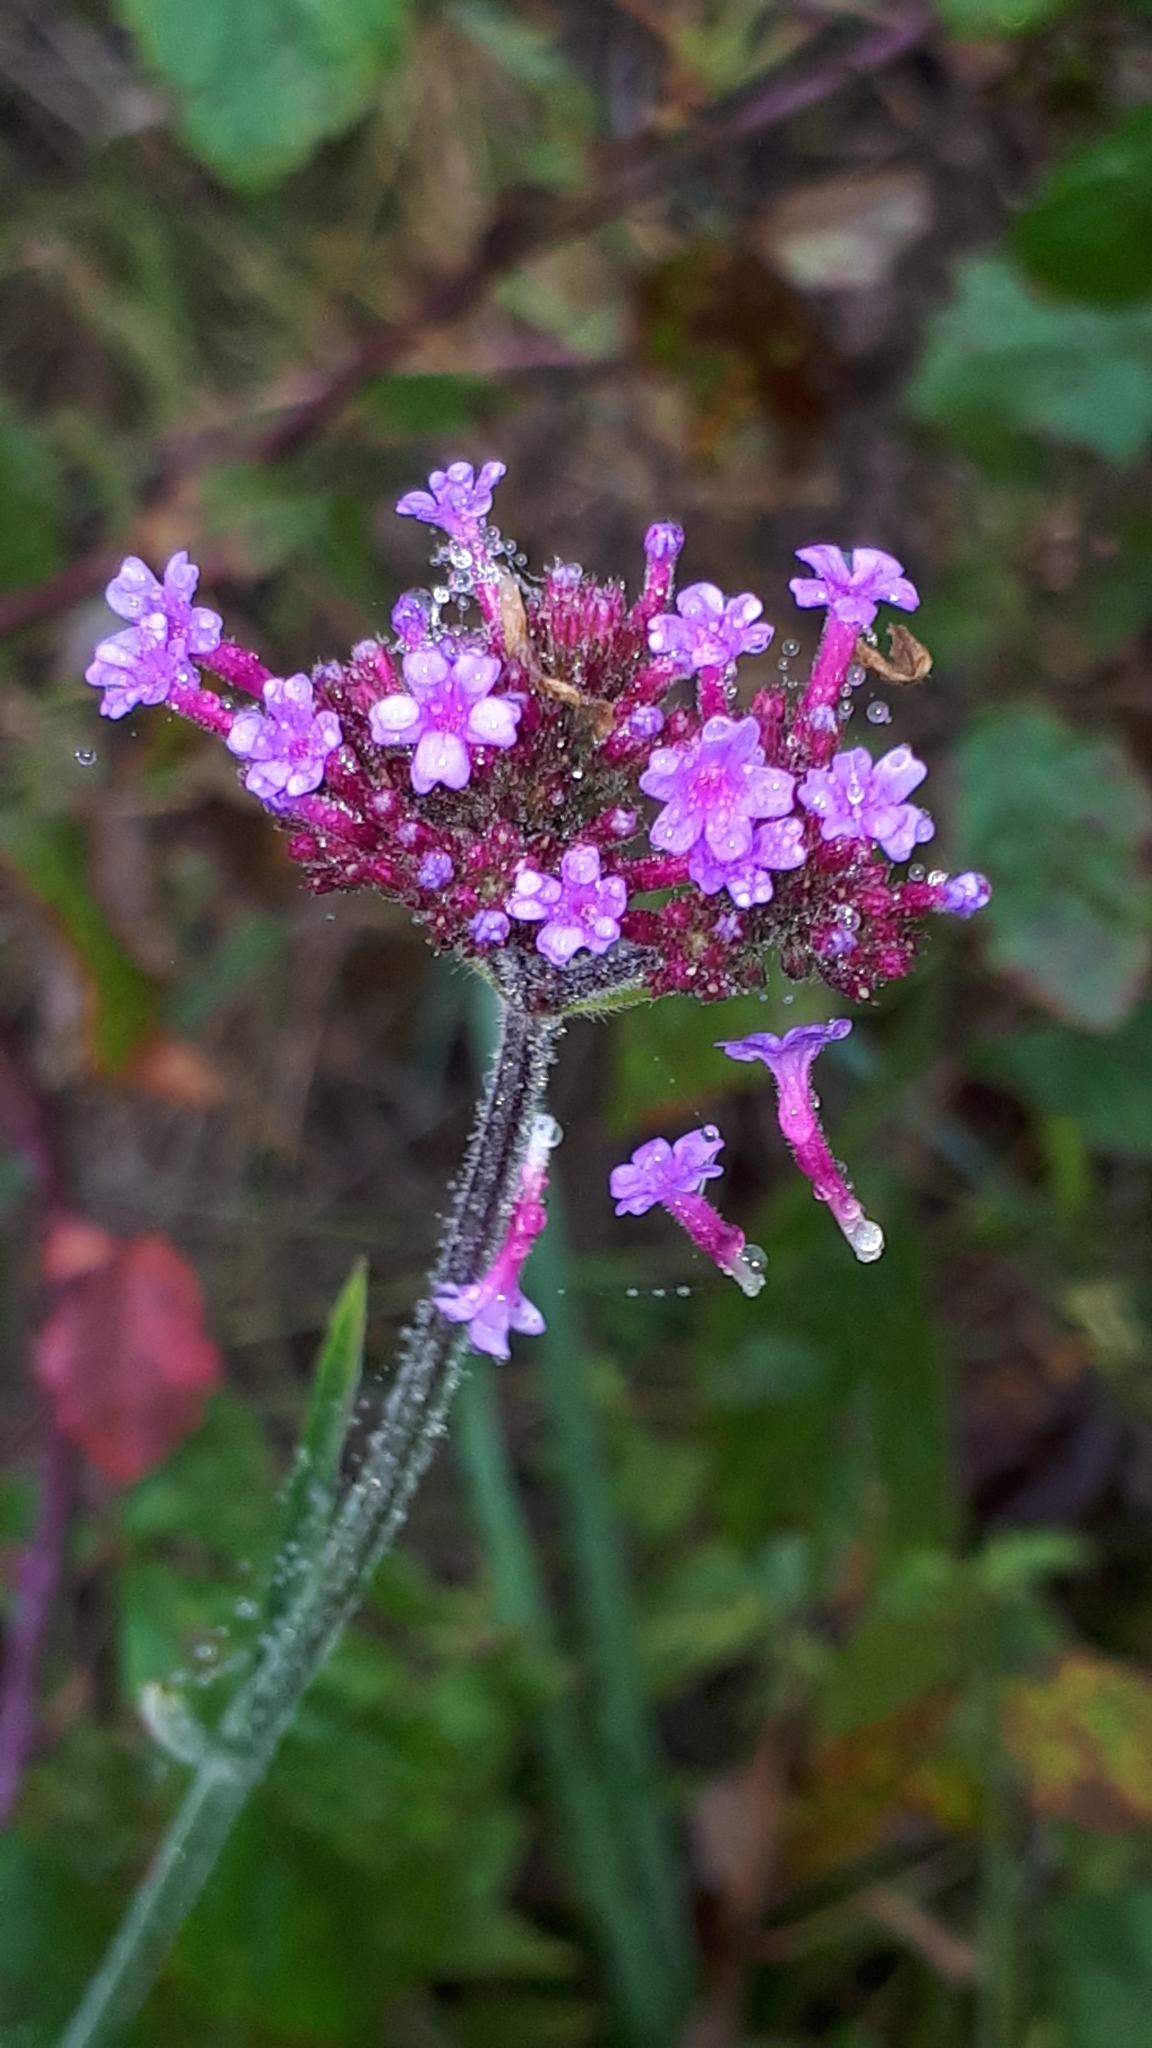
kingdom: Plantae
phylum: Tracheophyta
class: Magnoliopsida
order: Lamiales
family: Verbenaceae
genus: Verbena
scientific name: Verbena bonariensis
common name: Purpletop vervain
